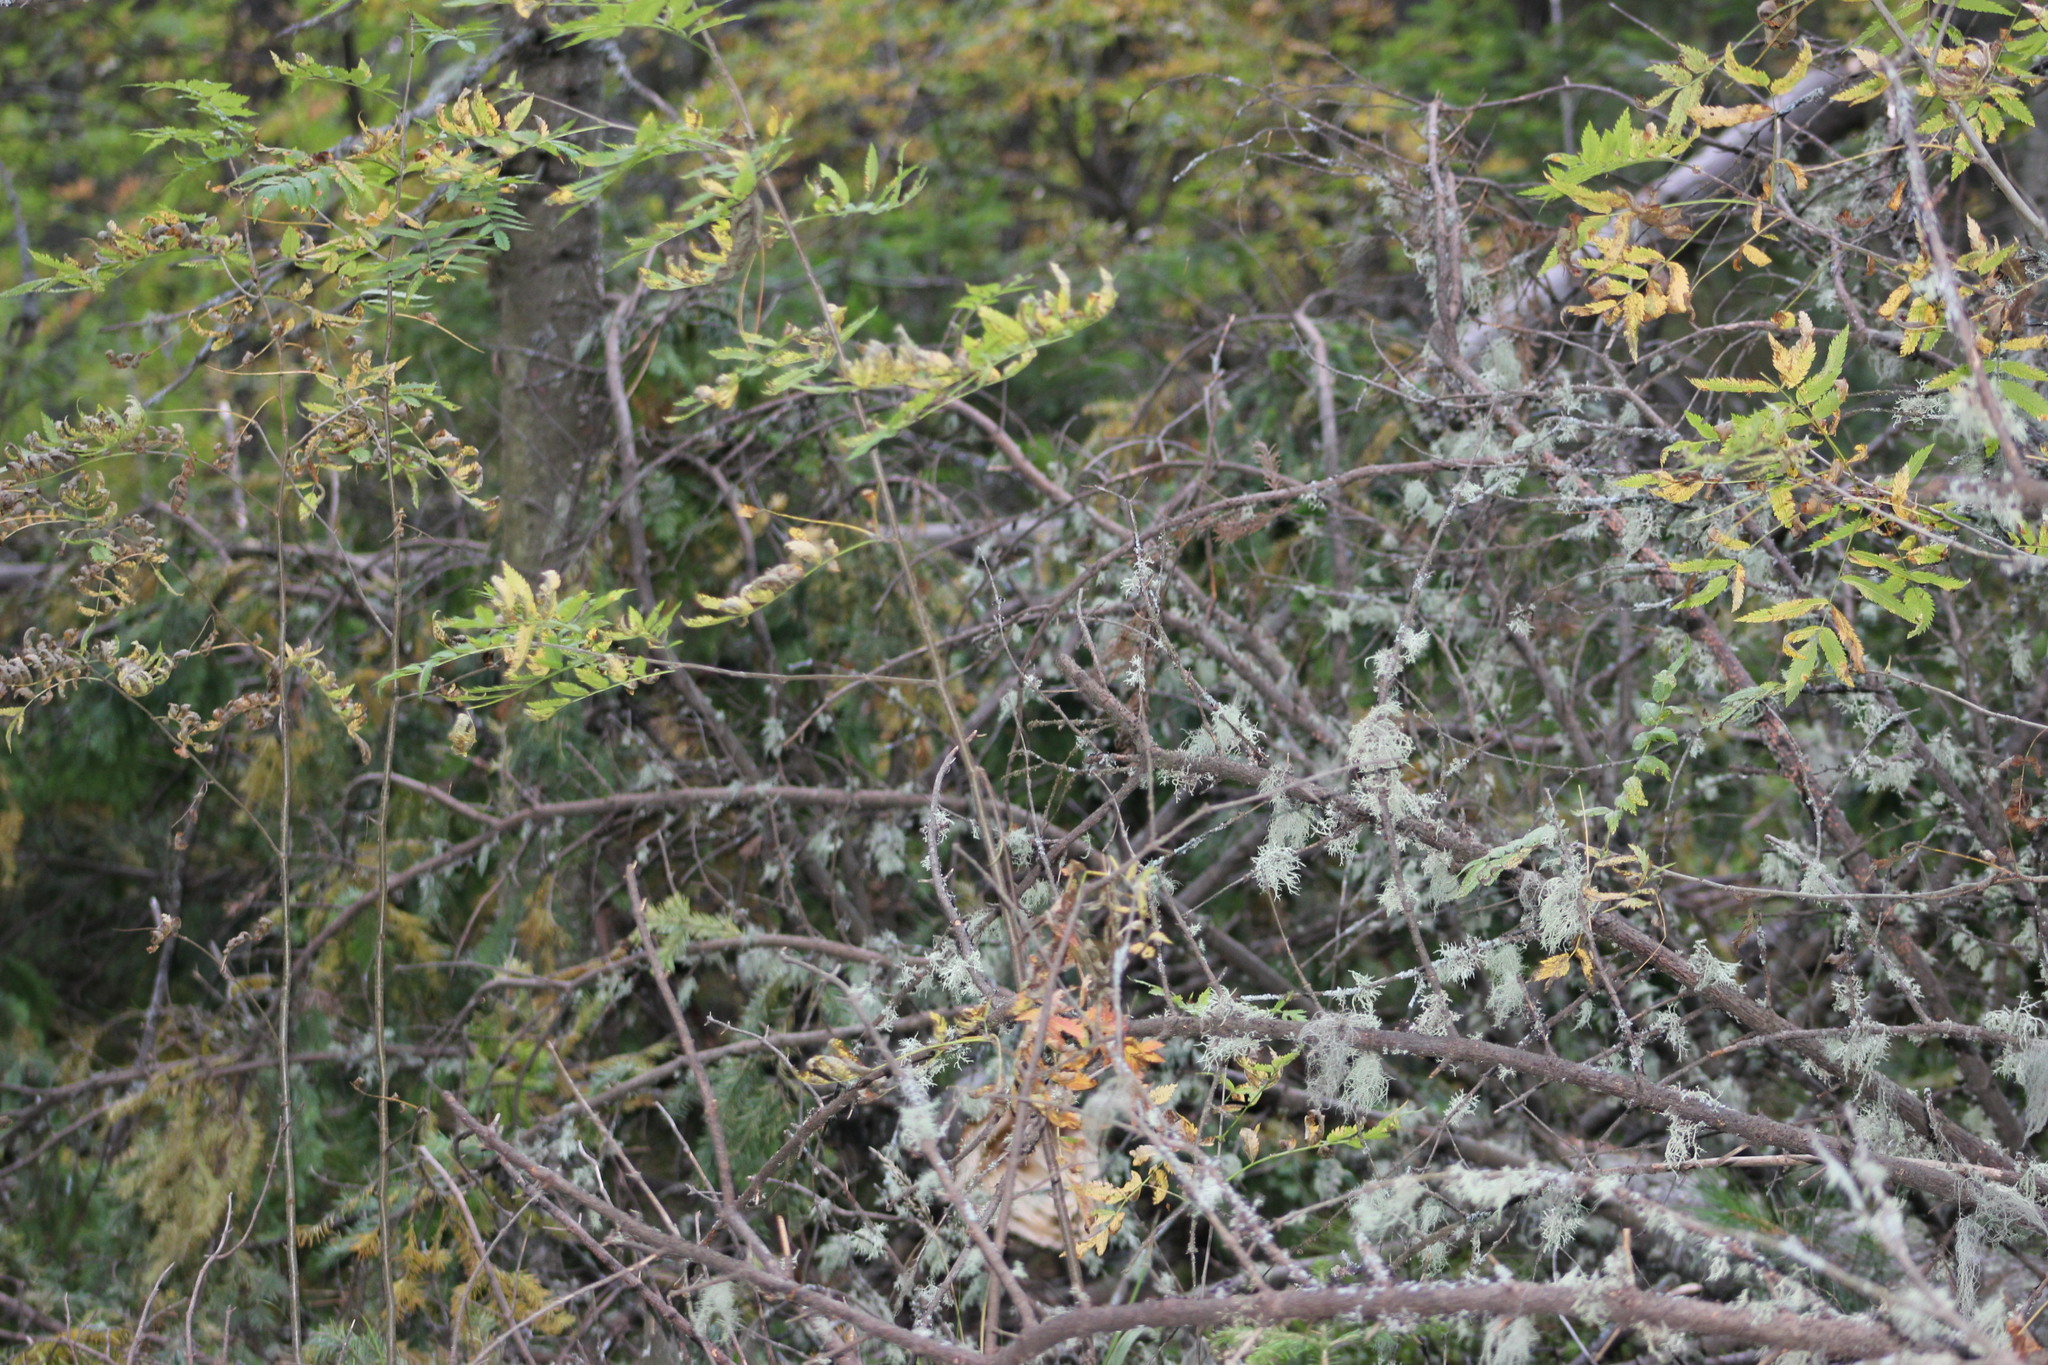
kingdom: Plantae
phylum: Tracheophyta
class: Magnoliopsida
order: Rosales
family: Rosaceae
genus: Sorbus
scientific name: Sorbus aucuparia
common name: Rowan
